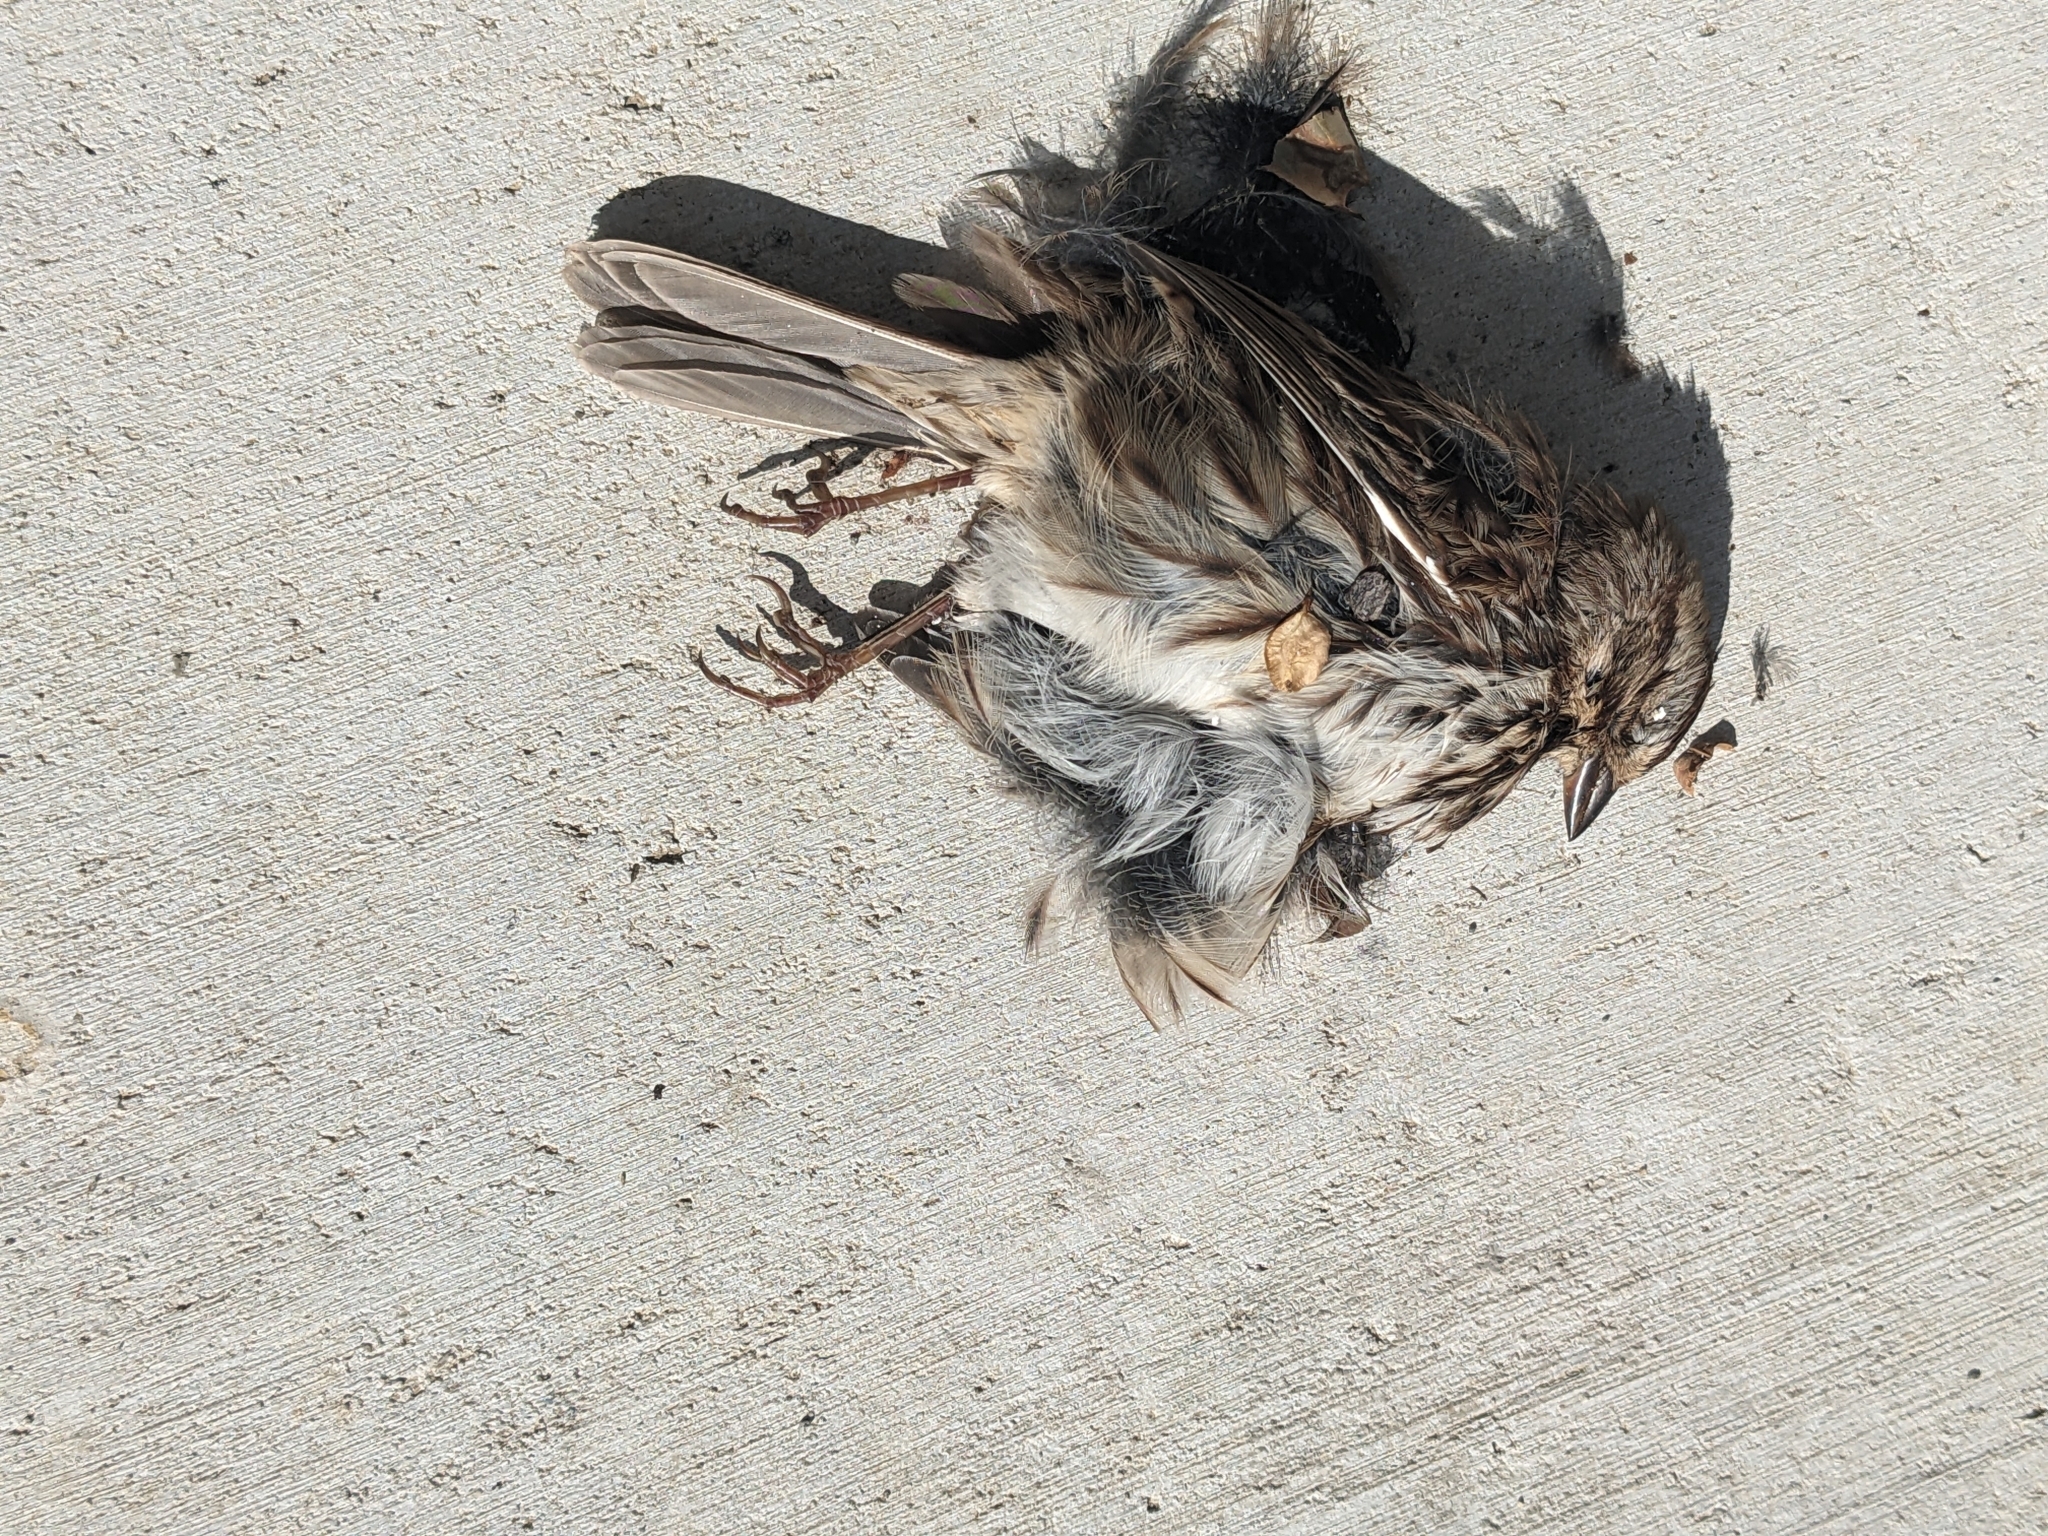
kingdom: Animalia
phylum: Chordata
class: Aves
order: Passeriformes
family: Passerellidae
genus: Melospiza
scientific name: Melospiza melodia
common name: Song sparrow
